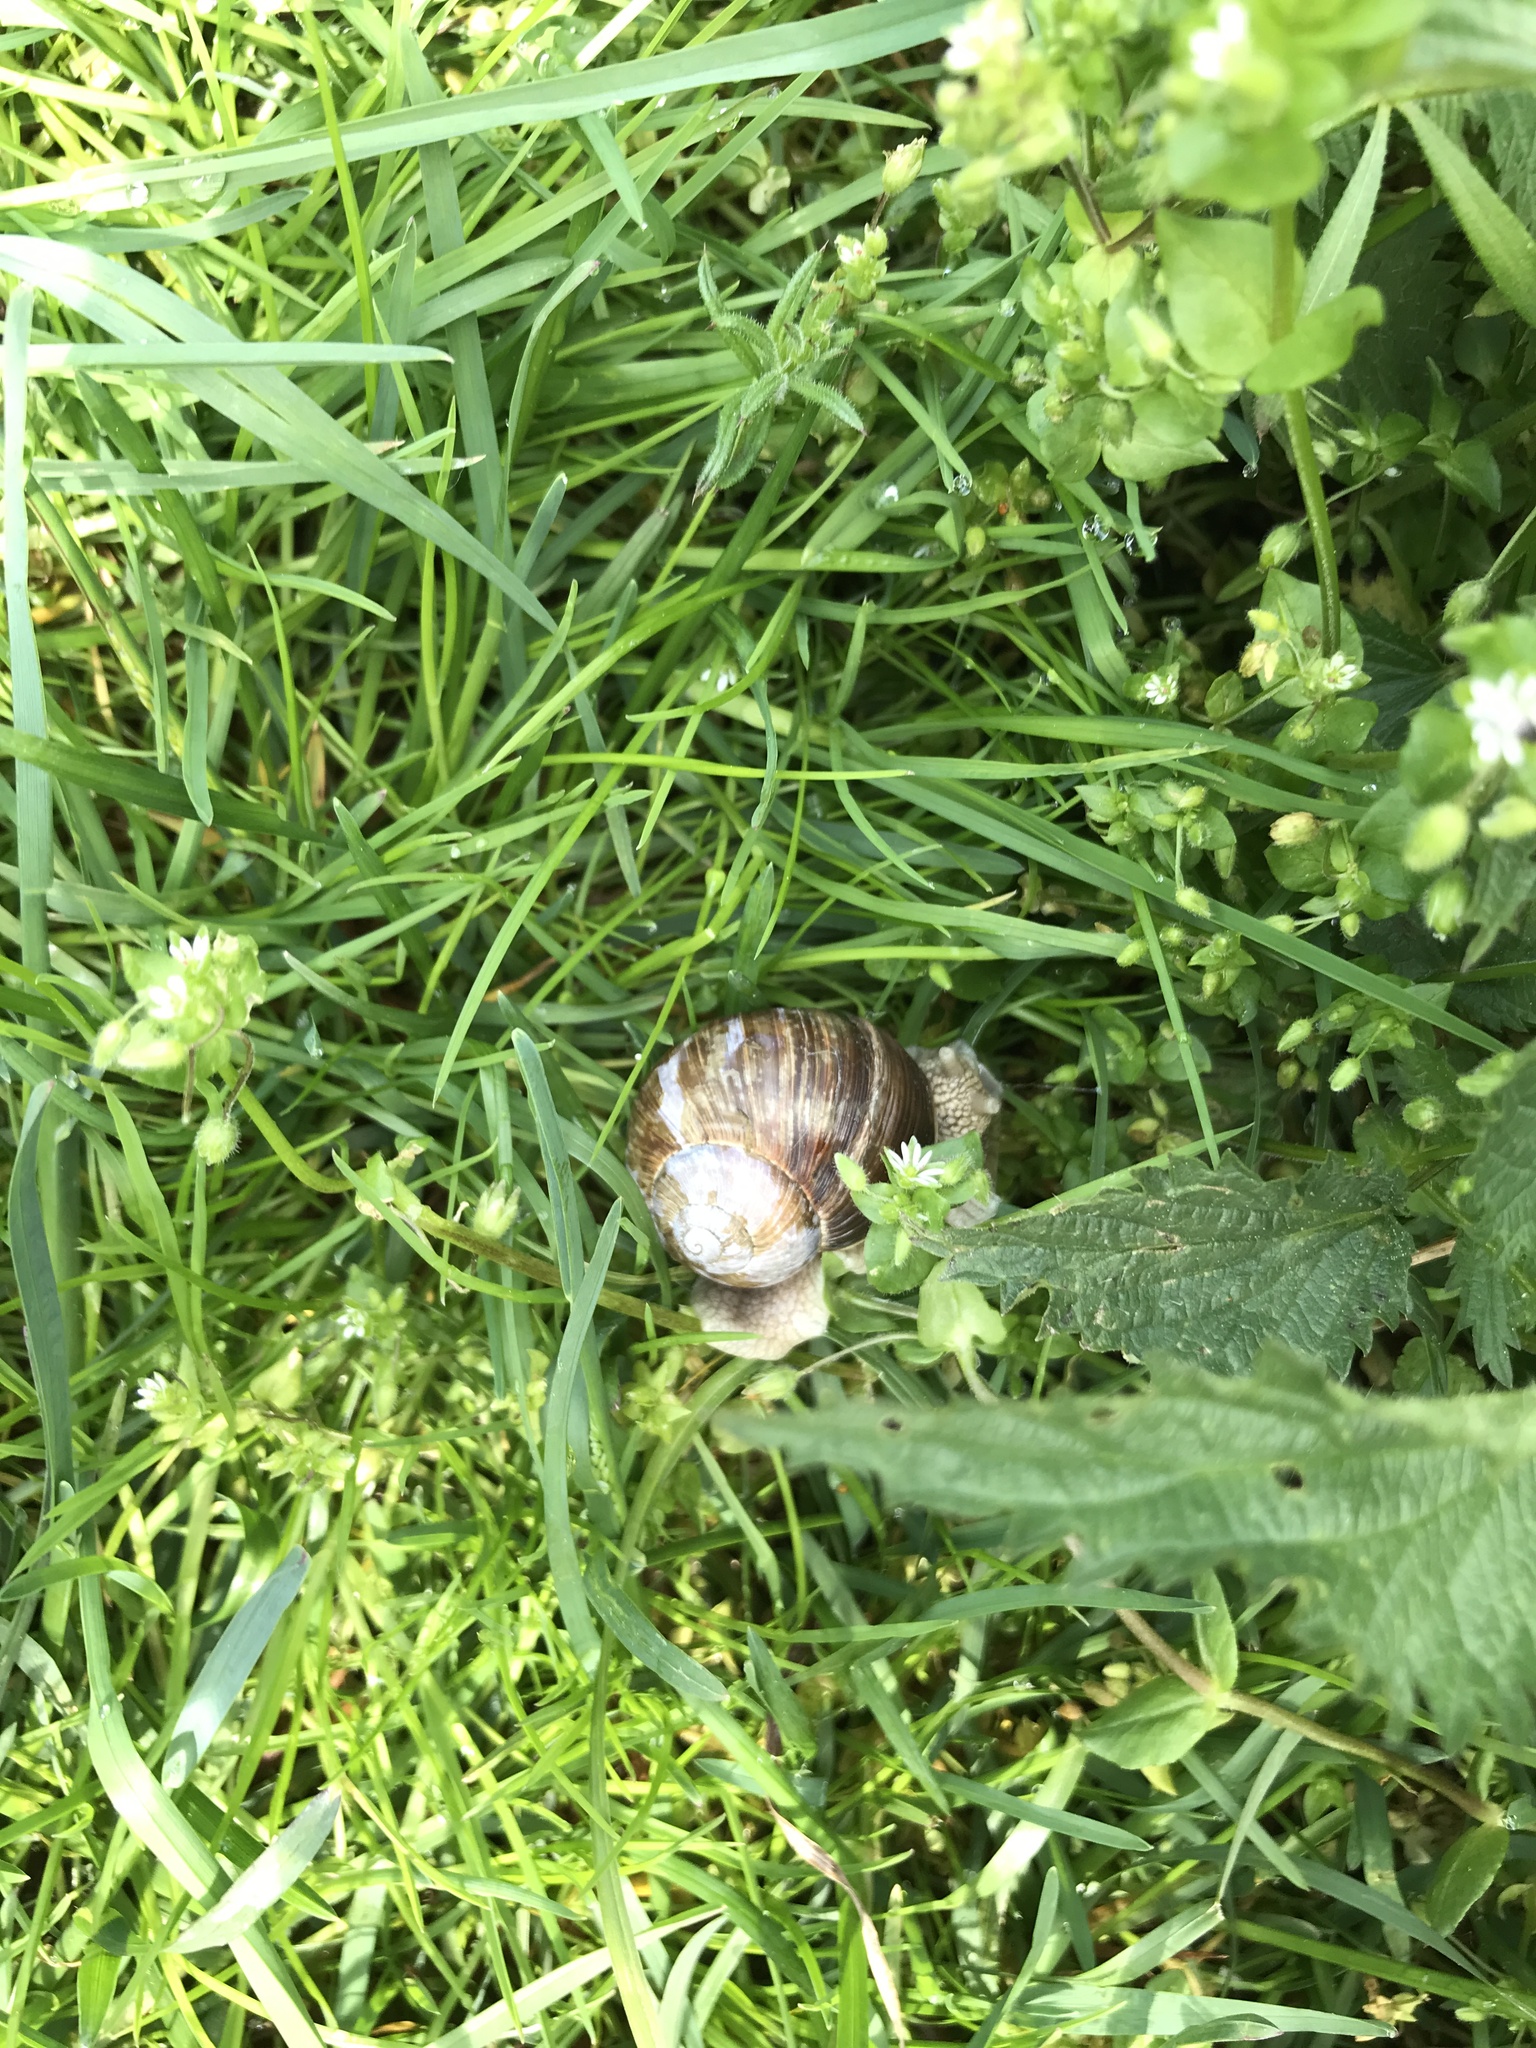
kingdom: Animalia
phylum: Mollusca
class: Gastropoda
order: Stylommatophora
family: Helicidae
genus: Helix
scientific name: Helix pomatia
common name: Roman snail
